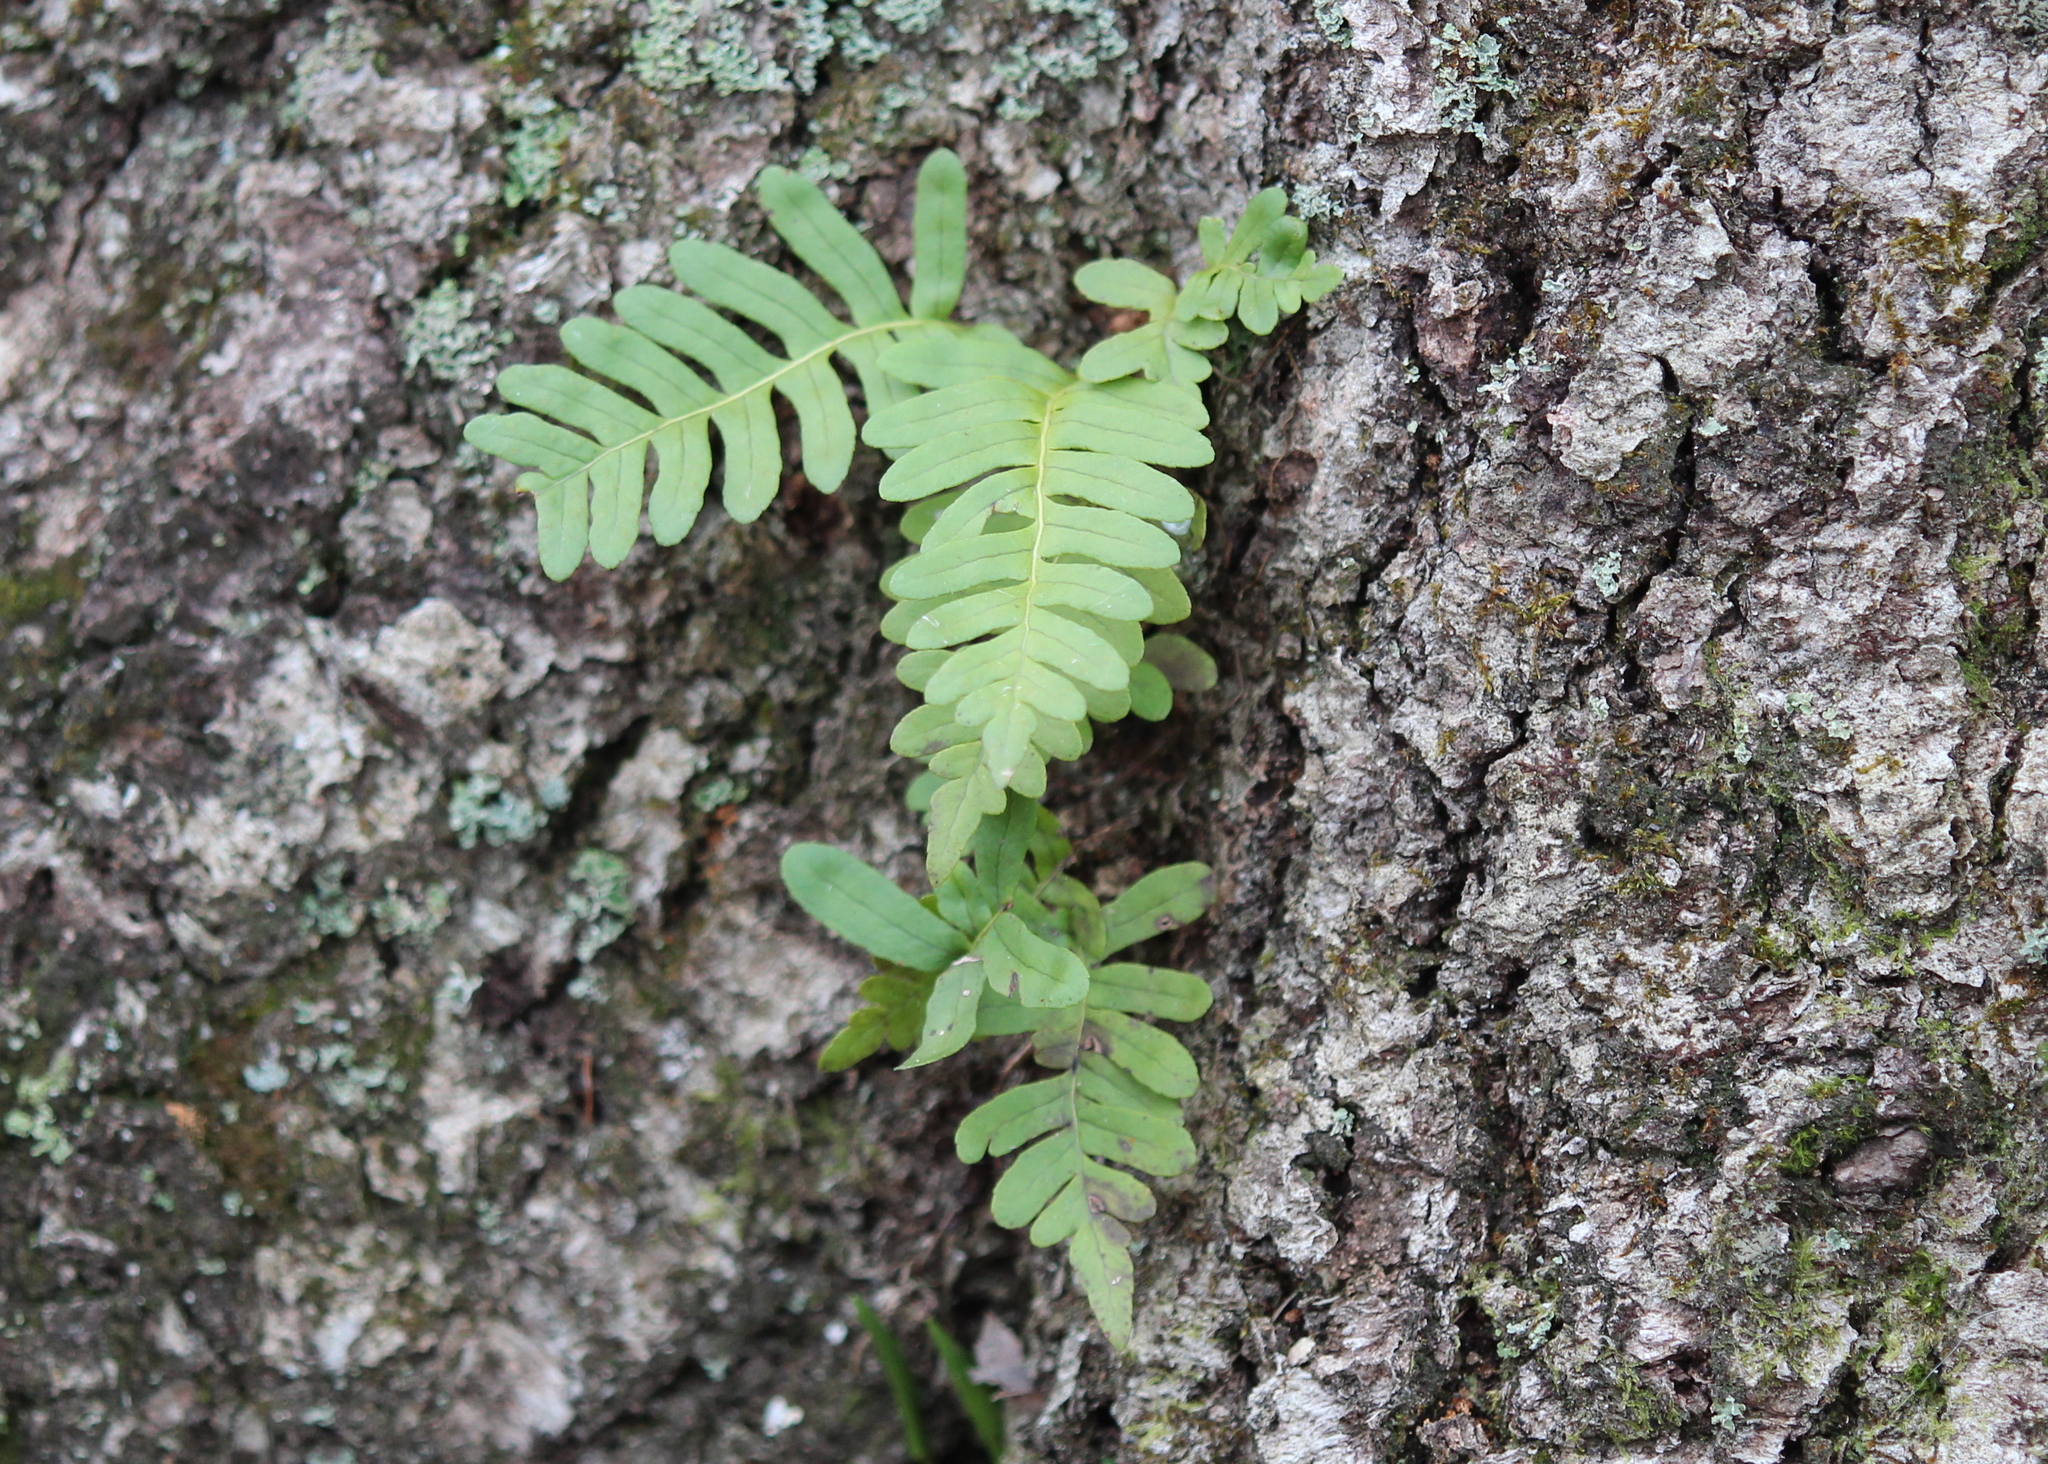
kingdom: Plantae
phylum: Tracheophyta
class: Polypodiopsida
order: Polypodiales
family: Polypodiaceae
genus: Polypodium
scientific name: Polypodium virginianum
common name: American wall fern
